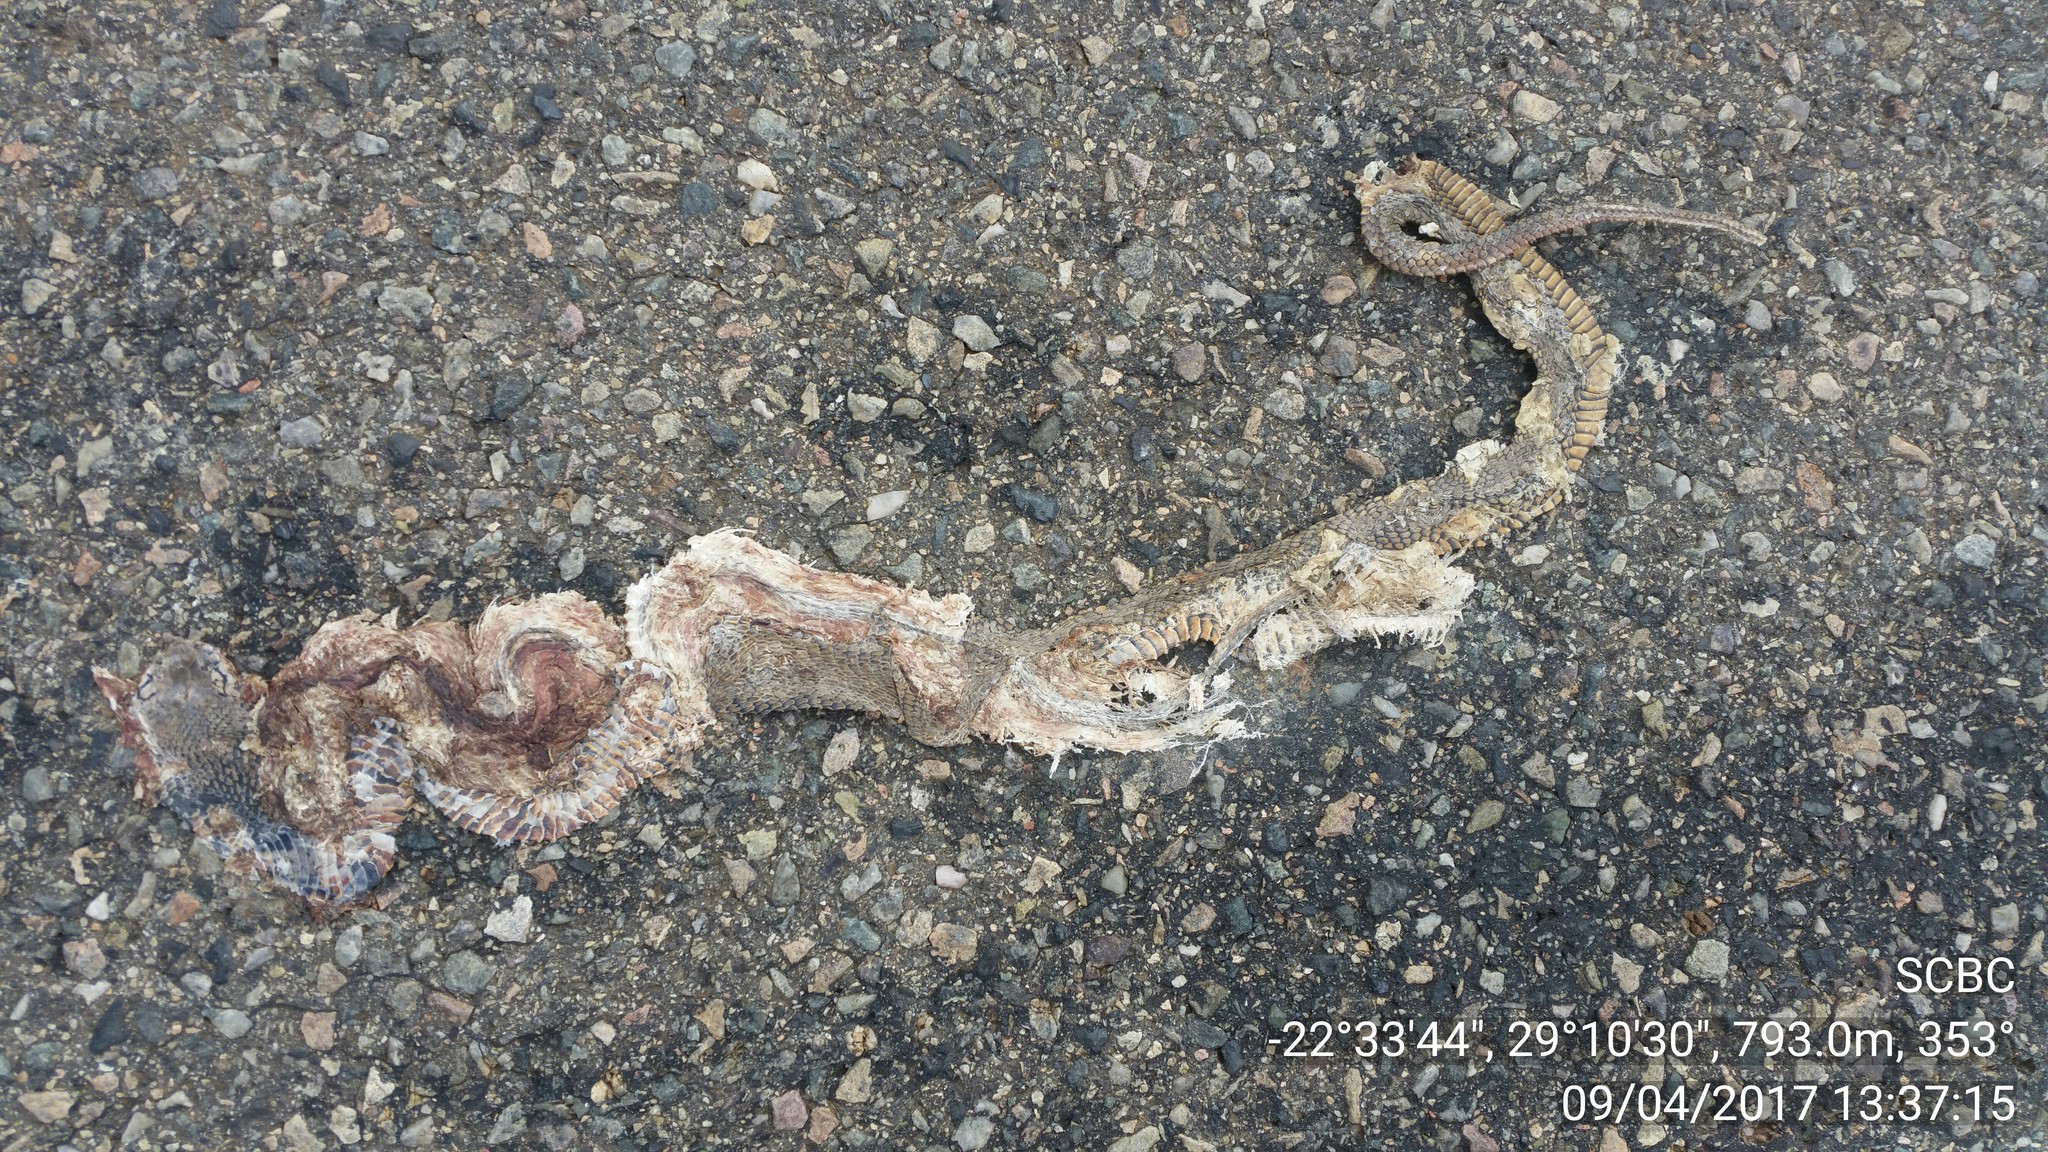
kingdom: Animalia
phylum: Chordata
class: Squamata
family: Elapidae
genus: Naja
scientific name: Naja mossambica
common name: Mozambique spitting cobra
